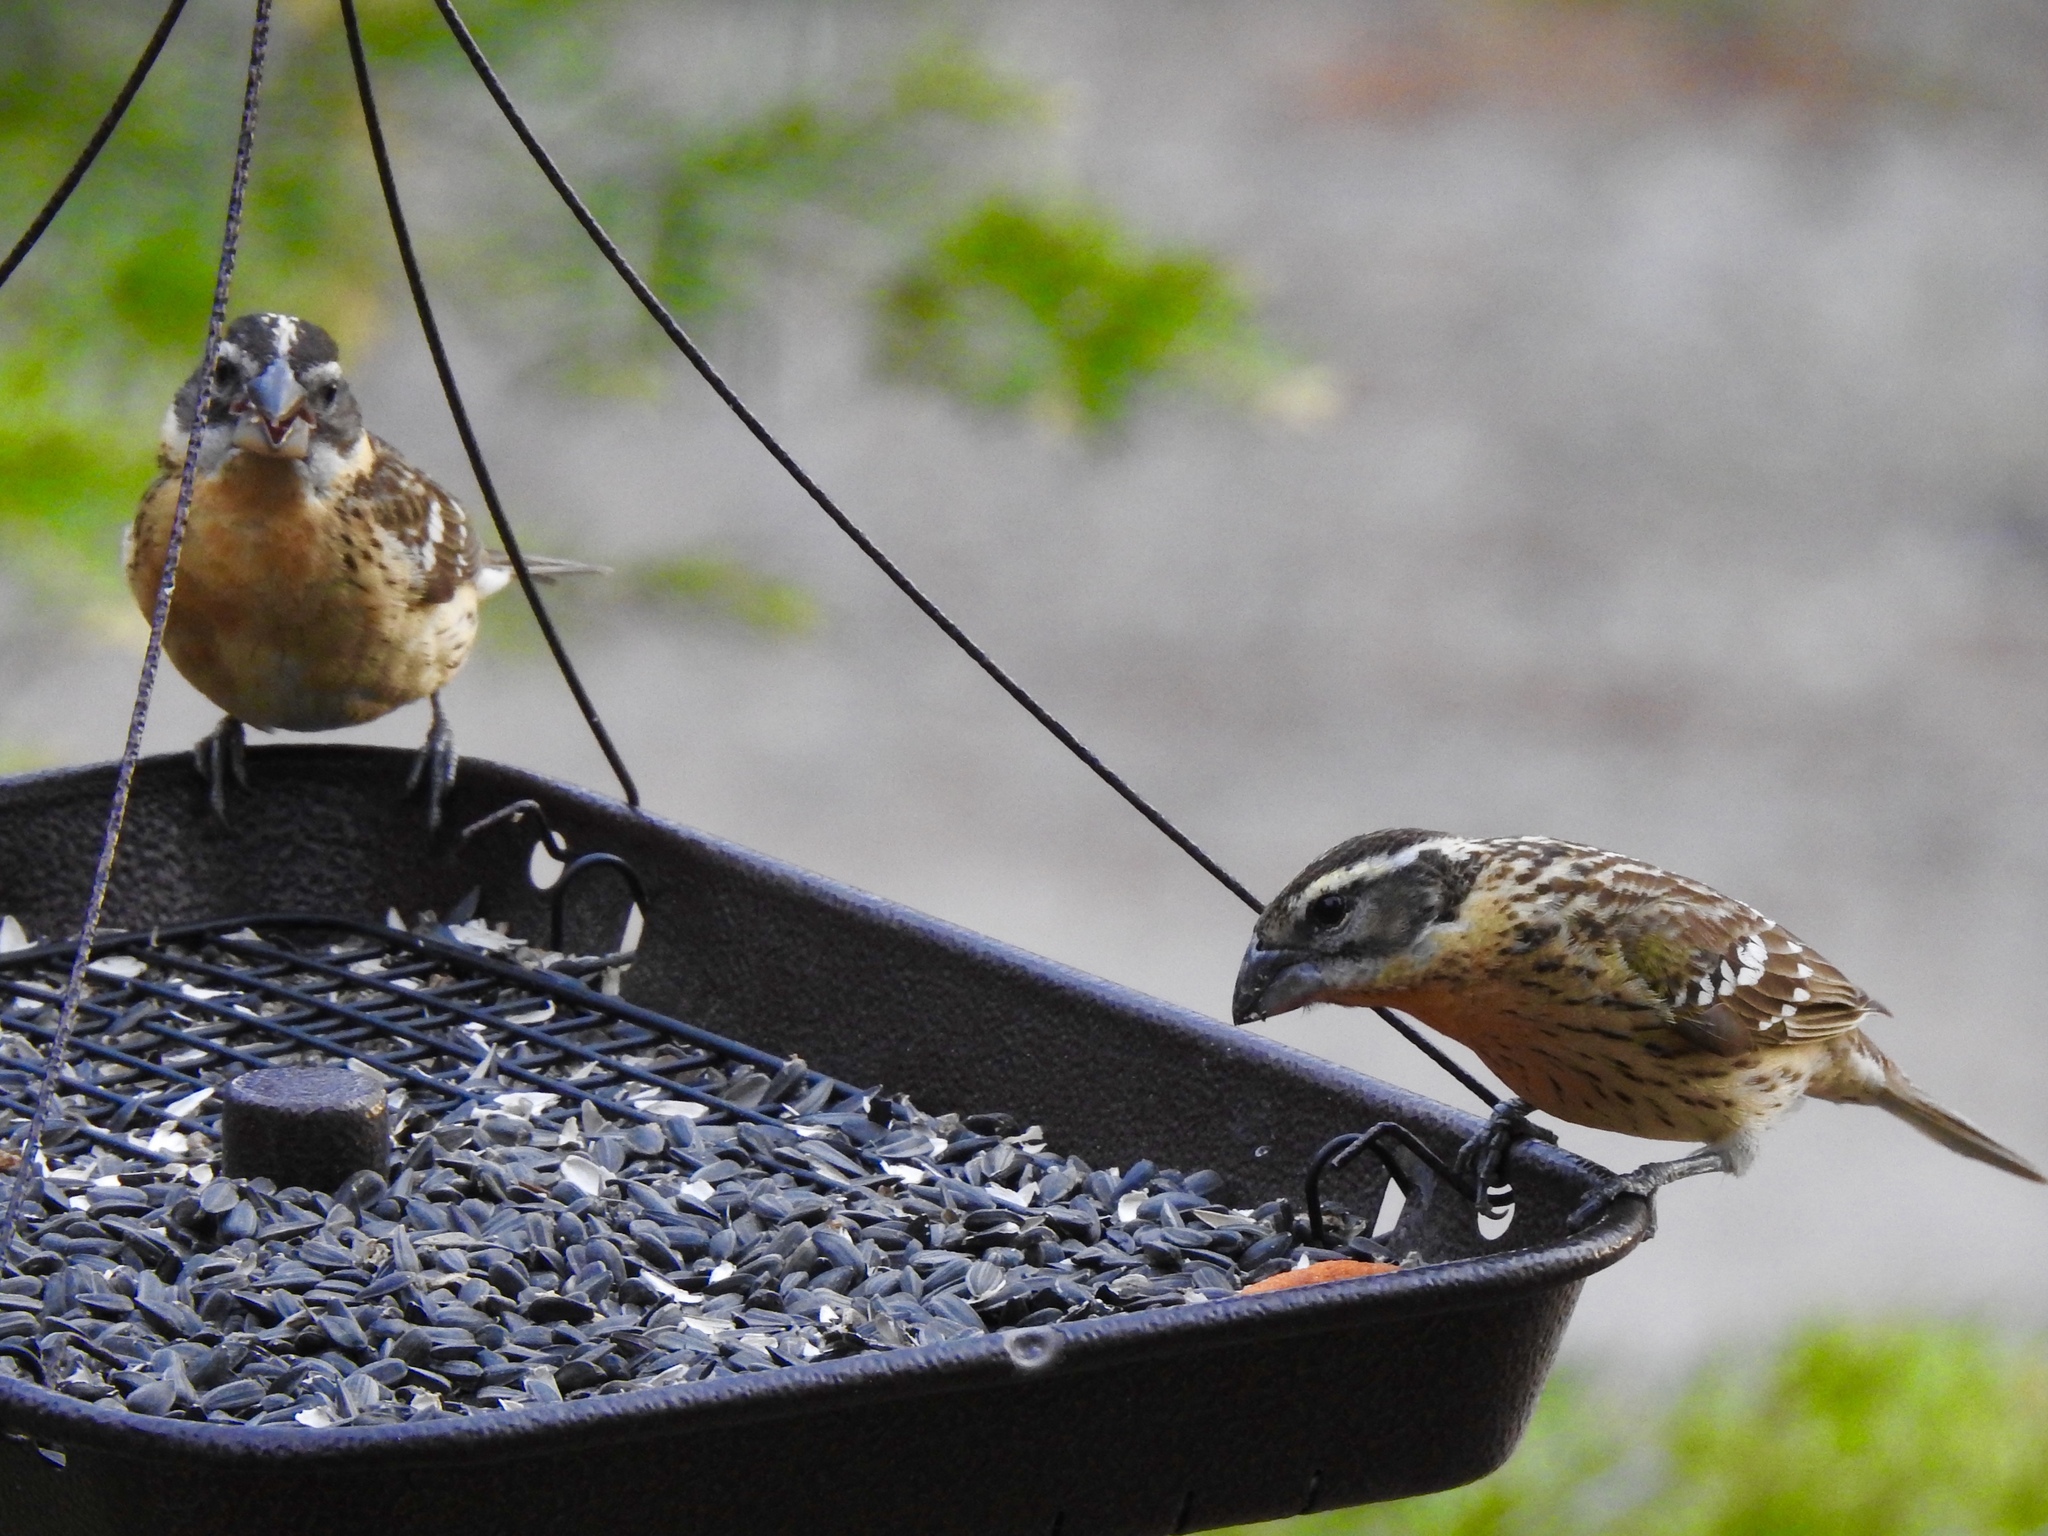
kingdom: Animalia
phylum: Chordata
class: Aves
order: Passeriformes
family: Cardinalidae
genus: Pheucticus
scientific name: Pheucticus melanocephalus
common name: Black-headed grosbeak
